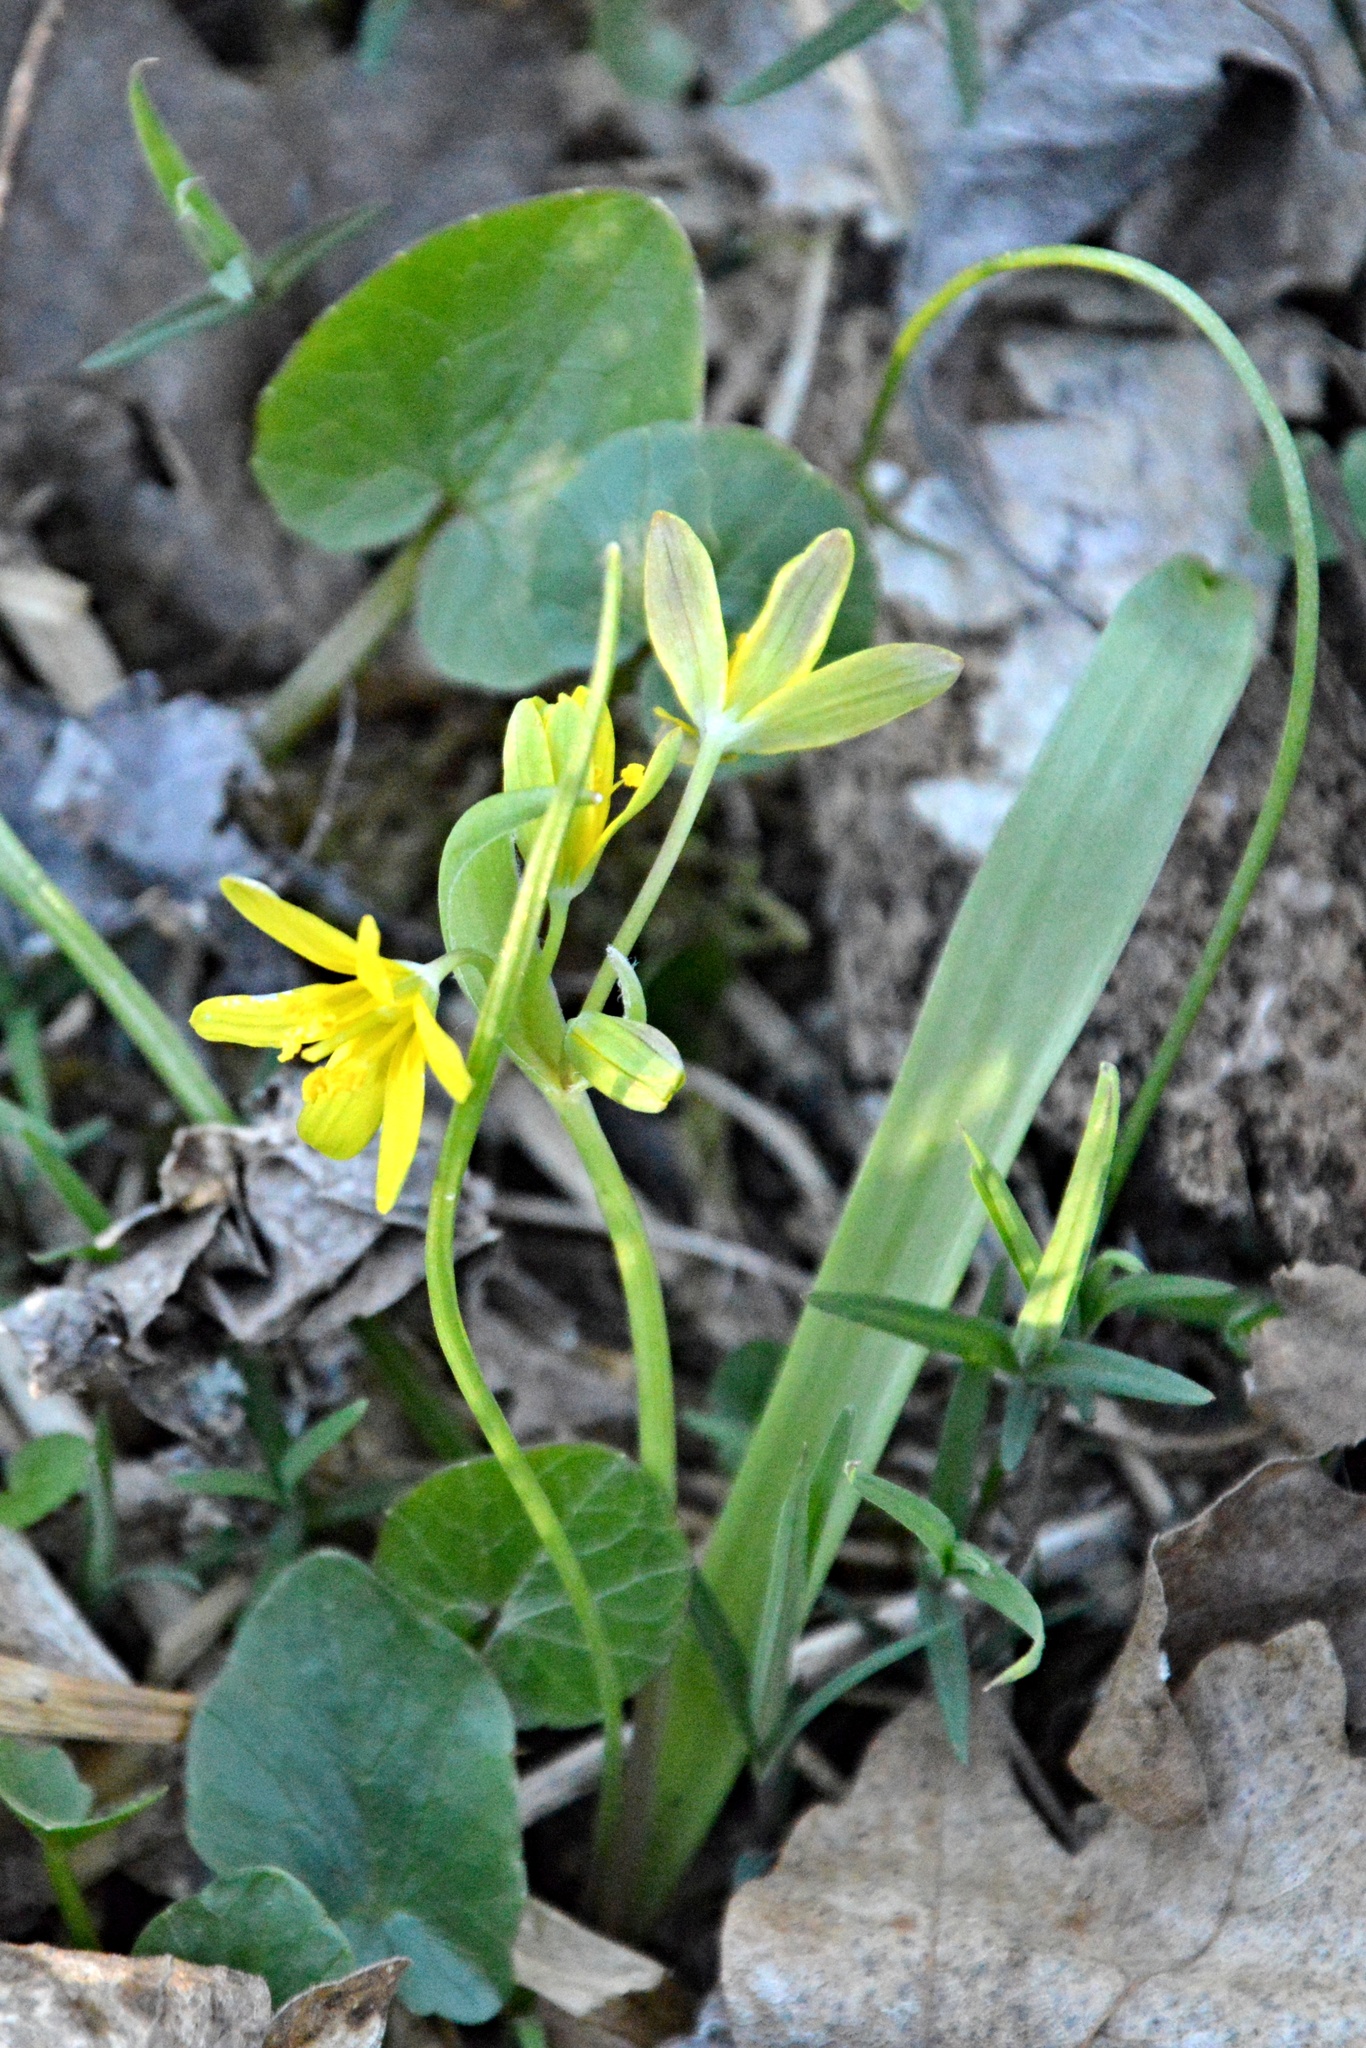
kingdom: Plantae
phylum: Tracheophyta
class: Liliopsida
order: Liliales
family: Liliaceae
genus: Gagea
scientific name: Gagea lutea
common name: Yellow star-of-bethlehem
